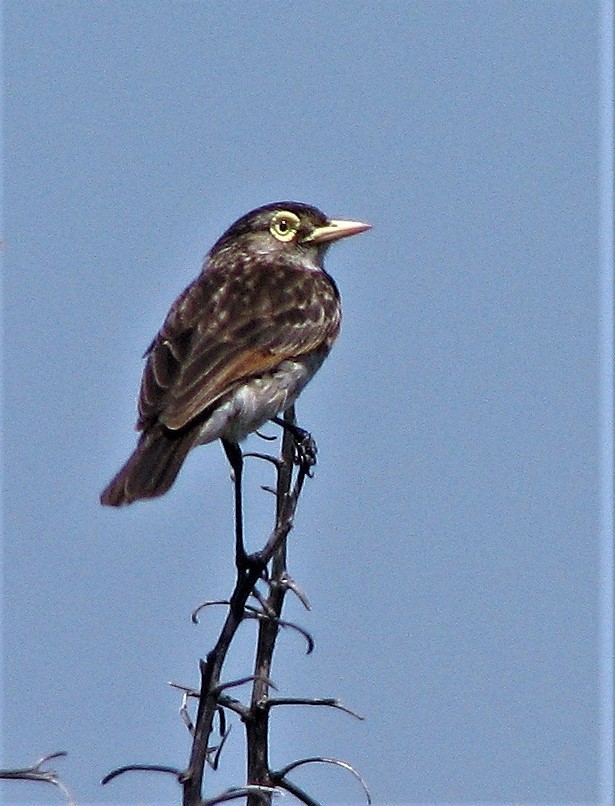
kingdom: Animalia
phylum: Chordata
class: Aves
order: Passeriformes
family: Tyrannidae
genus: Hymenops
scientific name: Hymenops perspicillatus
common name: Spectacled tyrant
